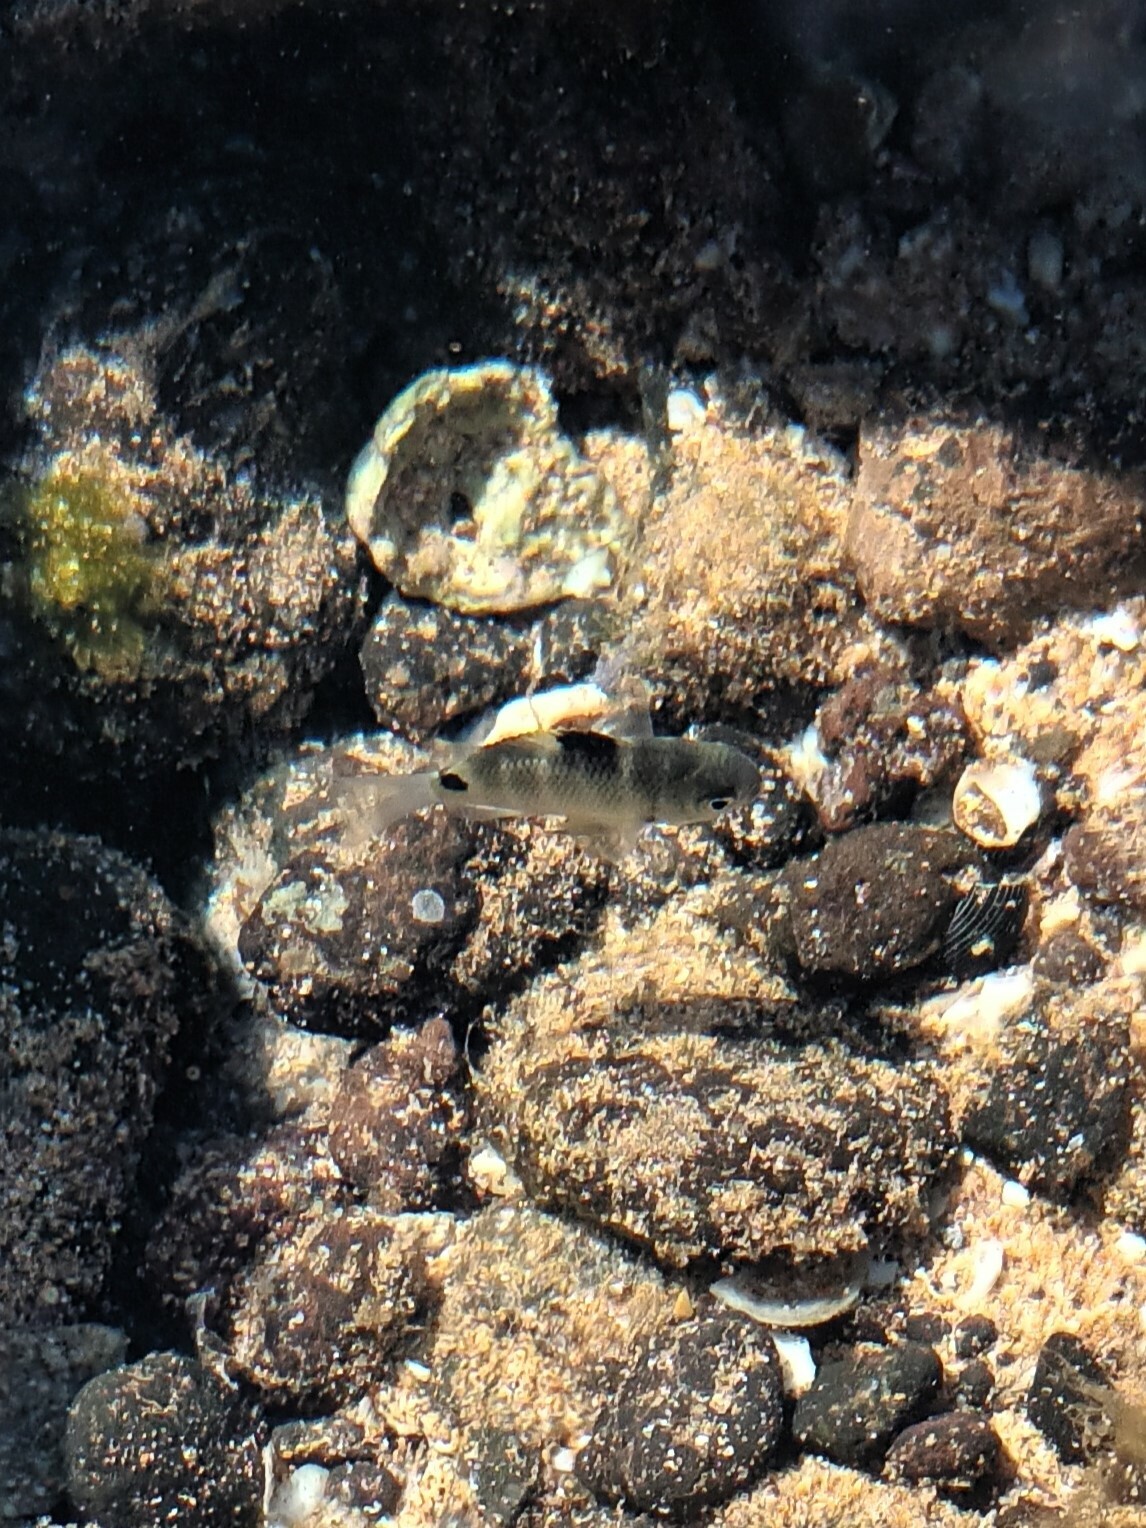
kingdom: Animalia
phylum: Chordata
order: Perciformes
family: Pomacentridae
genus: Abudefduf
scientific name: Abudefduf sordidus
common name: Blackspot sergeant
